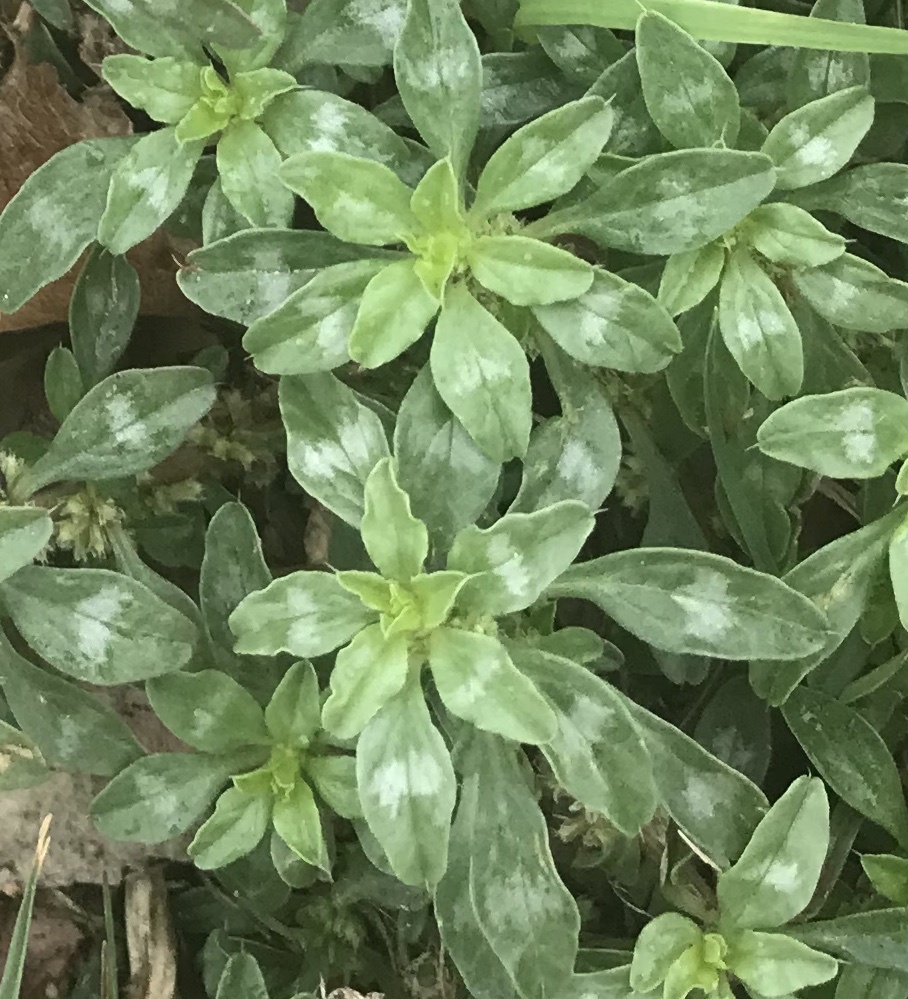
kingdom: Plantae
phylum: Tracheophyta
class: Magnoliopsida
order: Caryophyllales
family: Amaranthaceae
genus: Amaranthus
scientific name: Amaranthus polygonoides
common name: Tropical amaranth
